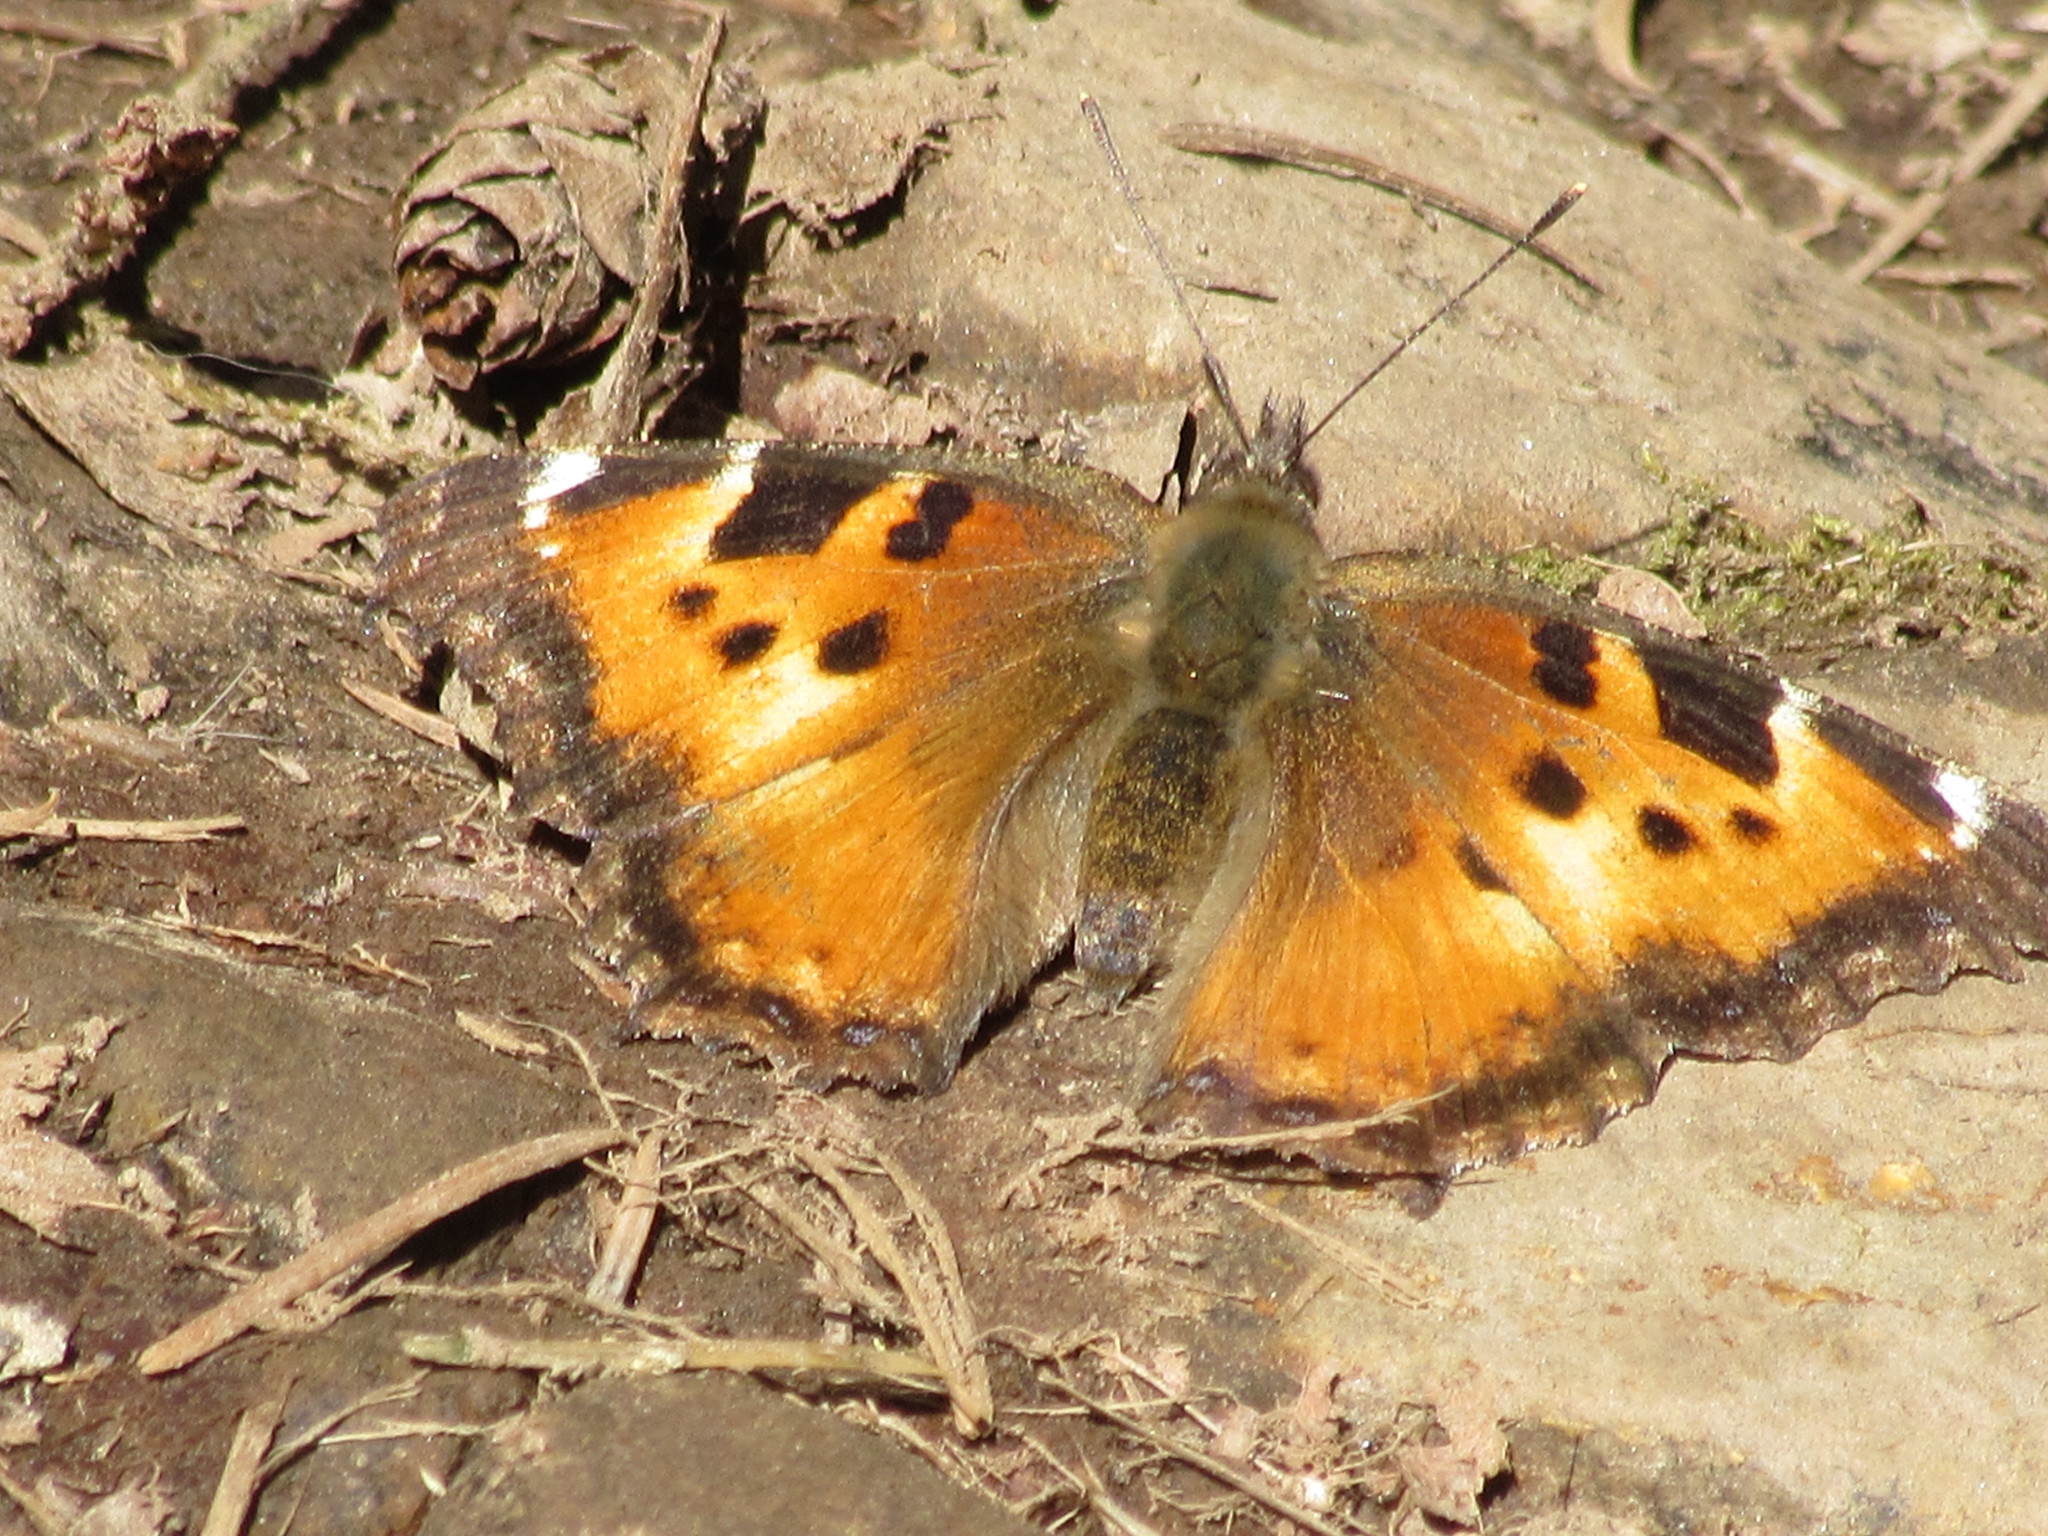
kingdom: Animalia
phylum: Arthropoda
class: Insecta
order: Lepidoptera
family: Nymphalidae
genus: Nymphalis
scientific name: Nymphalis californica
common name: California tortoiseshell
